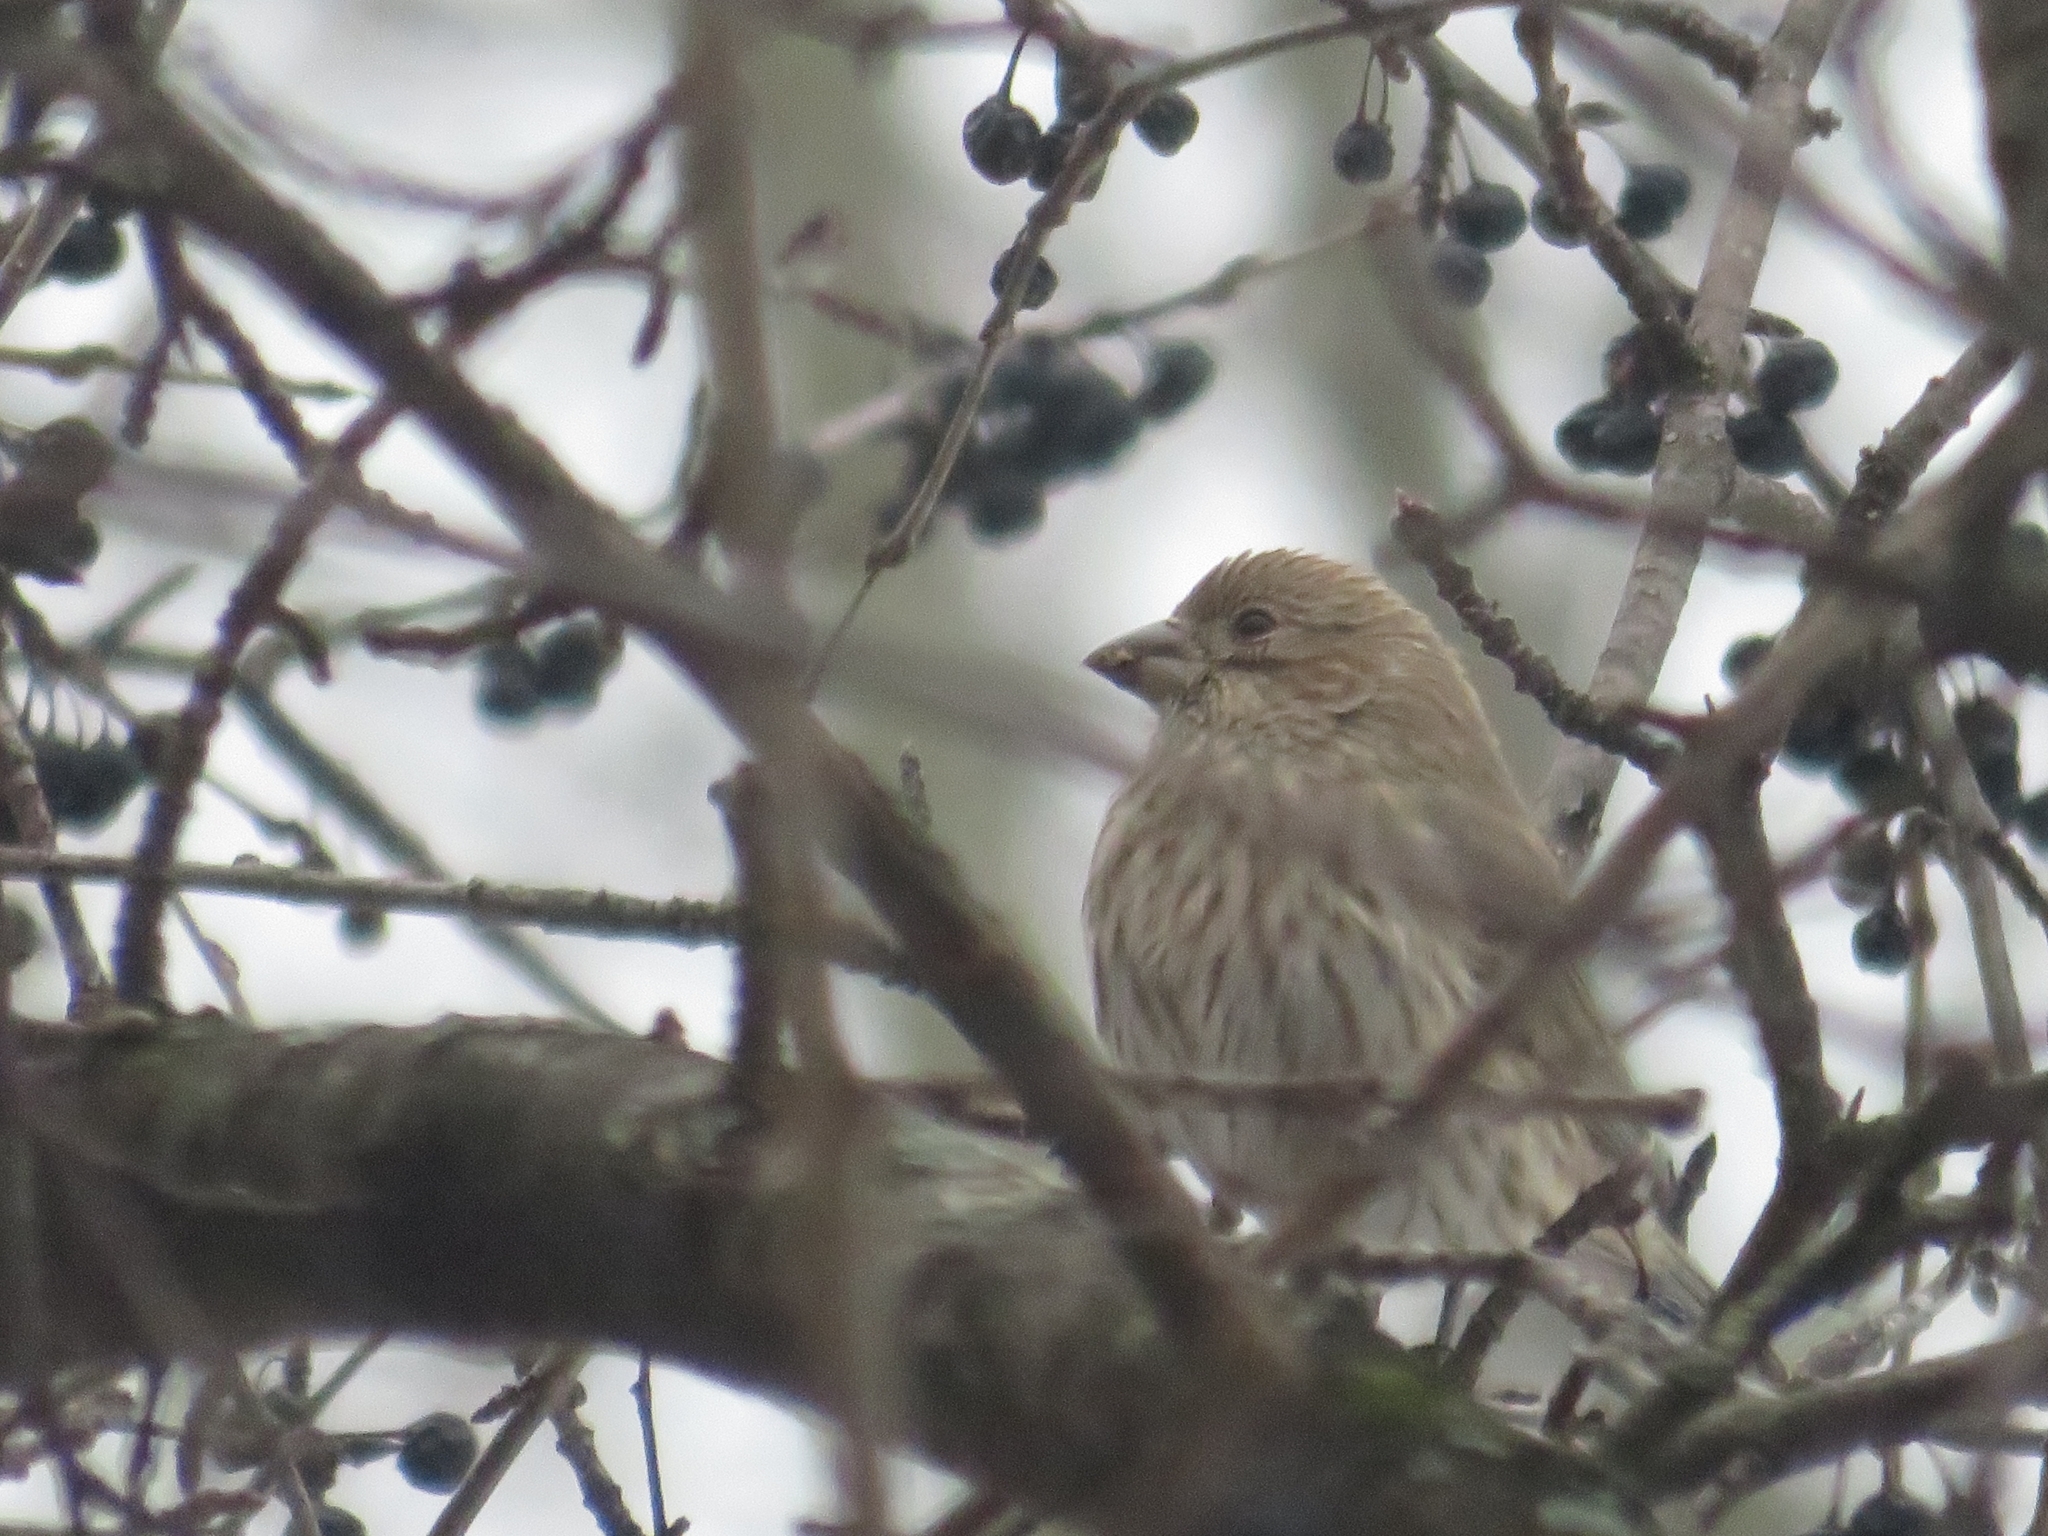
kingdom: Animalia
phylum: Chordata
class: Aves
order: Passeriformes
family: Fringillidae
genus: Haemorhous
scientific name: Haemorhous mexicanus
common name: House finch
